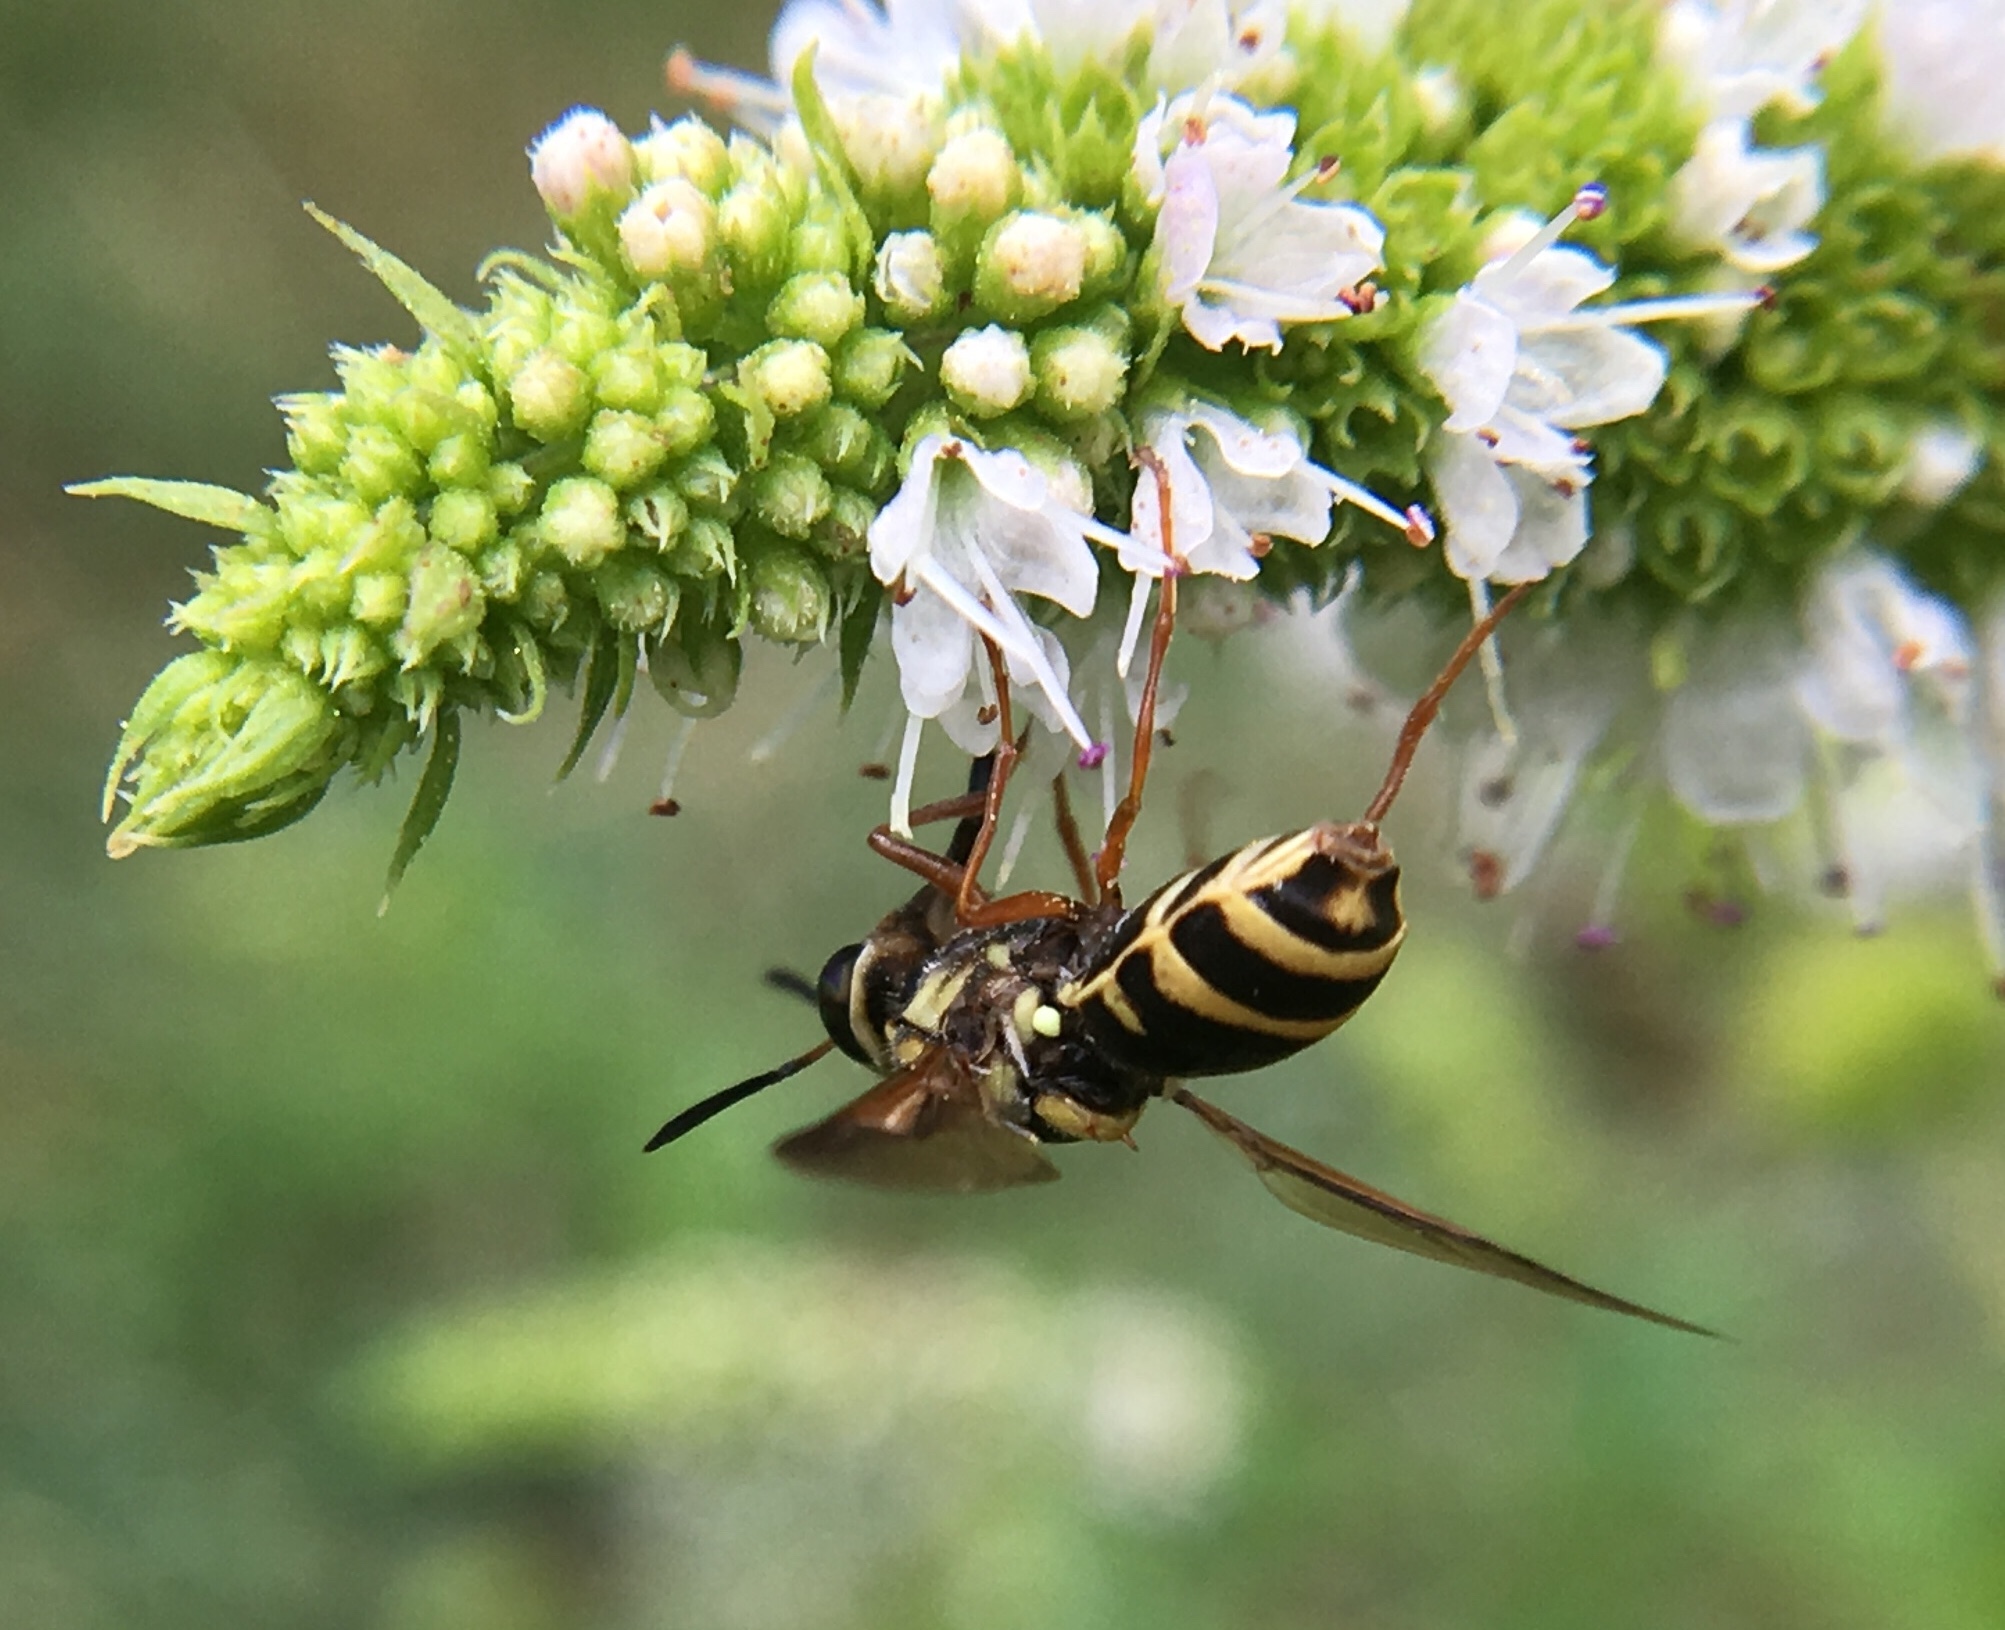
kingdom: Animalia
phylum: Arthropoda
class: Insecta
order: Diptera
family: Stratiomyidae
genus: Hoplitimyia
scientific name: Hoplitimyia constans
